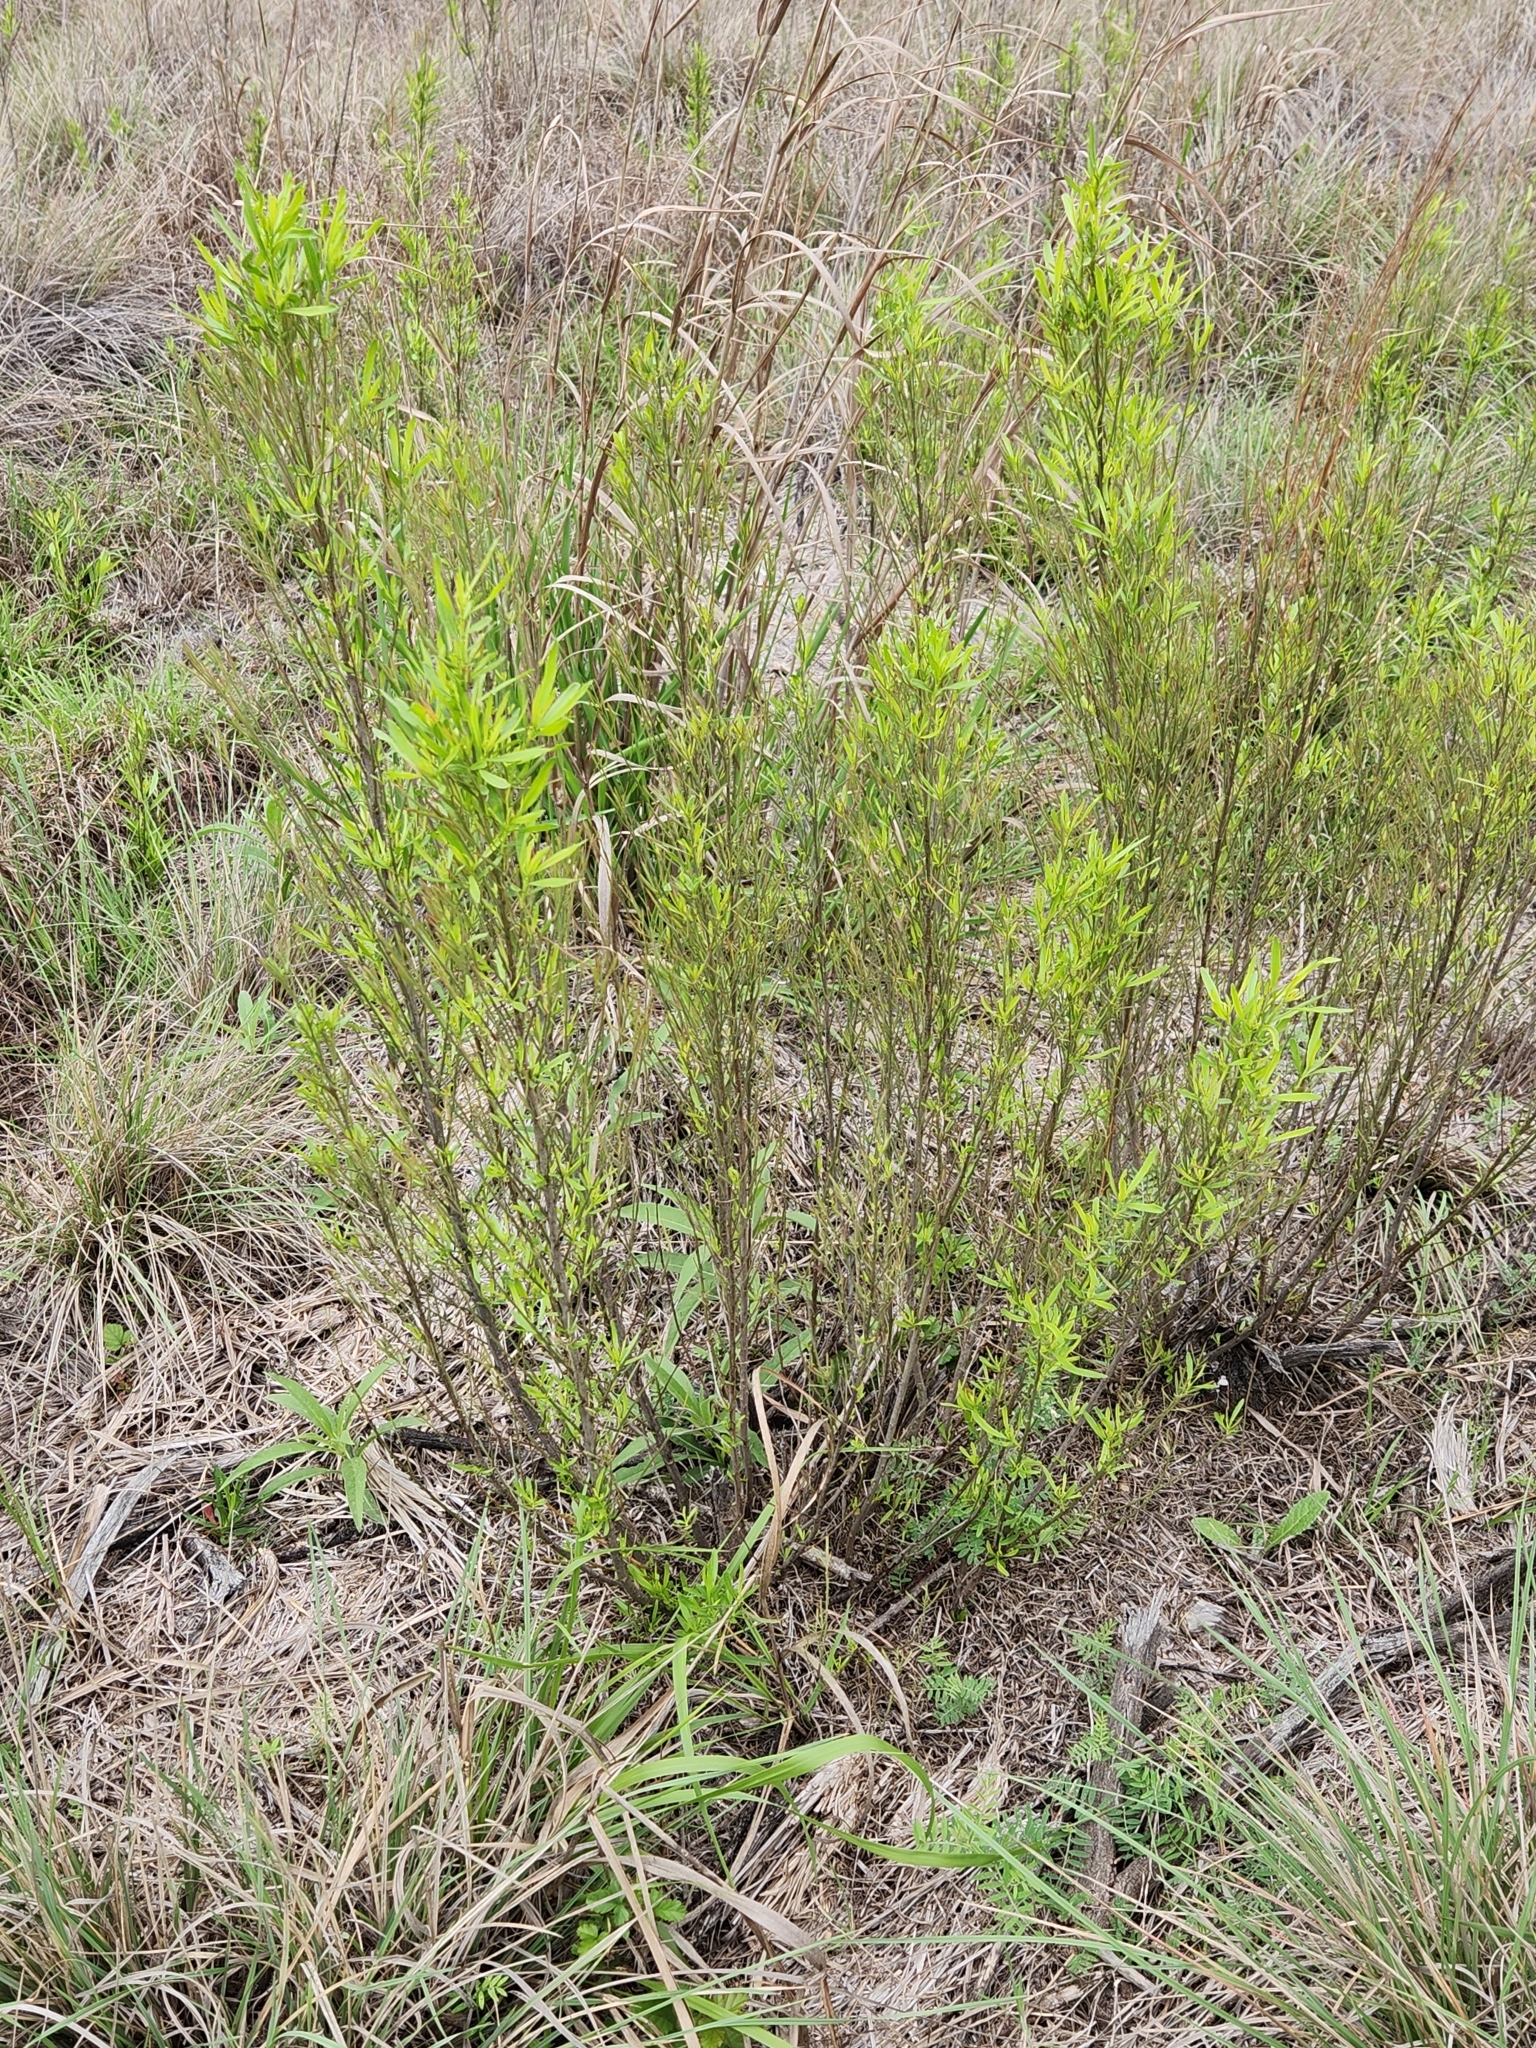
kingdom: Plantae
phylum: Tracheophyta
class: Magnoliopsida
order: Asterales
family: Asteraceae
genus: Baccharis
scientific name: Baccharis neglecta
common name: Roosevelt-weed
